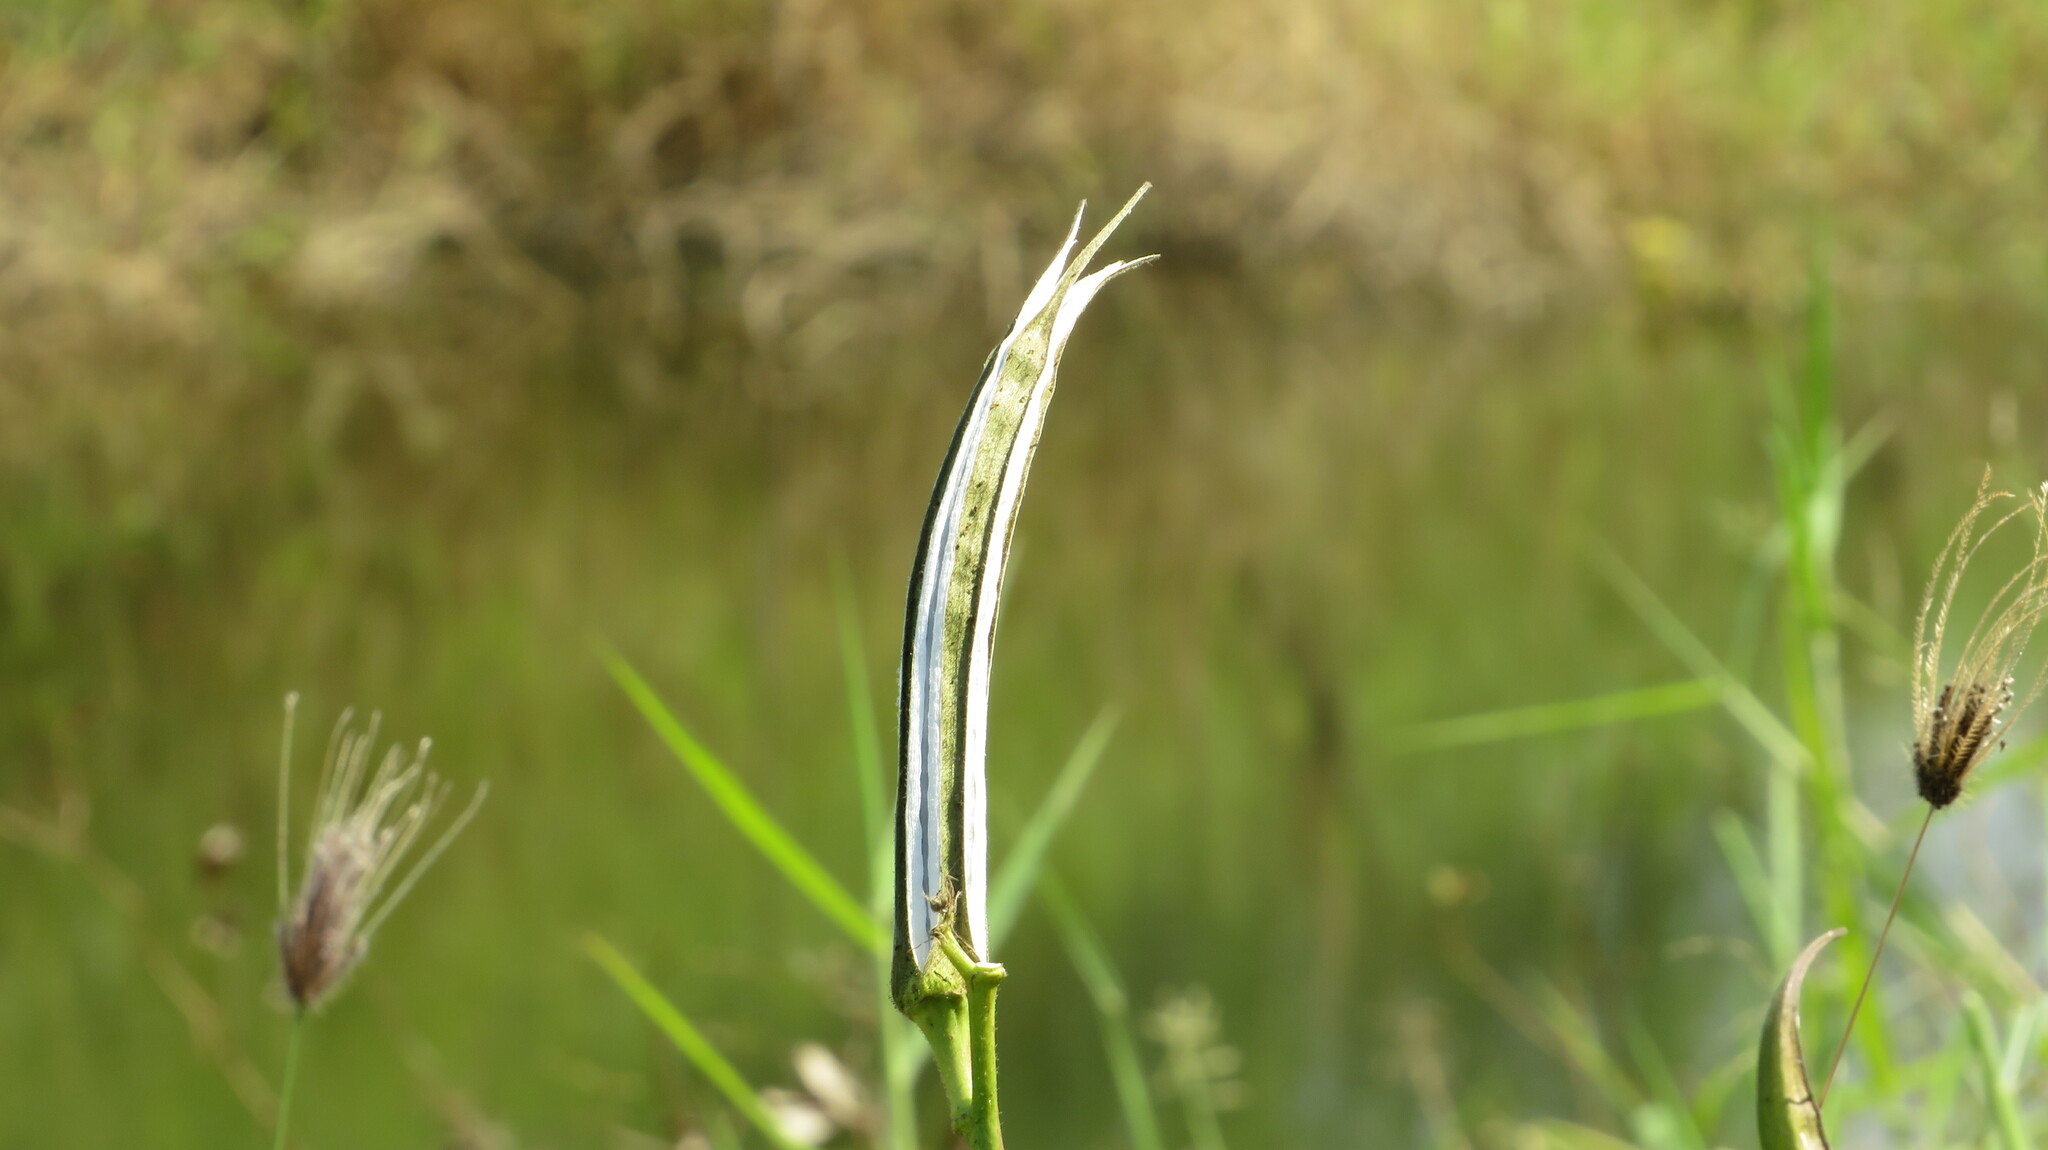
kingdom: Plantae
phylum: Tracheophyta
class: Magnoliopsida
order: Malvales
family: Malvaceae
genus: Abelmoschus
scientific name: Abelmoschus esculentus
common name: Okra
